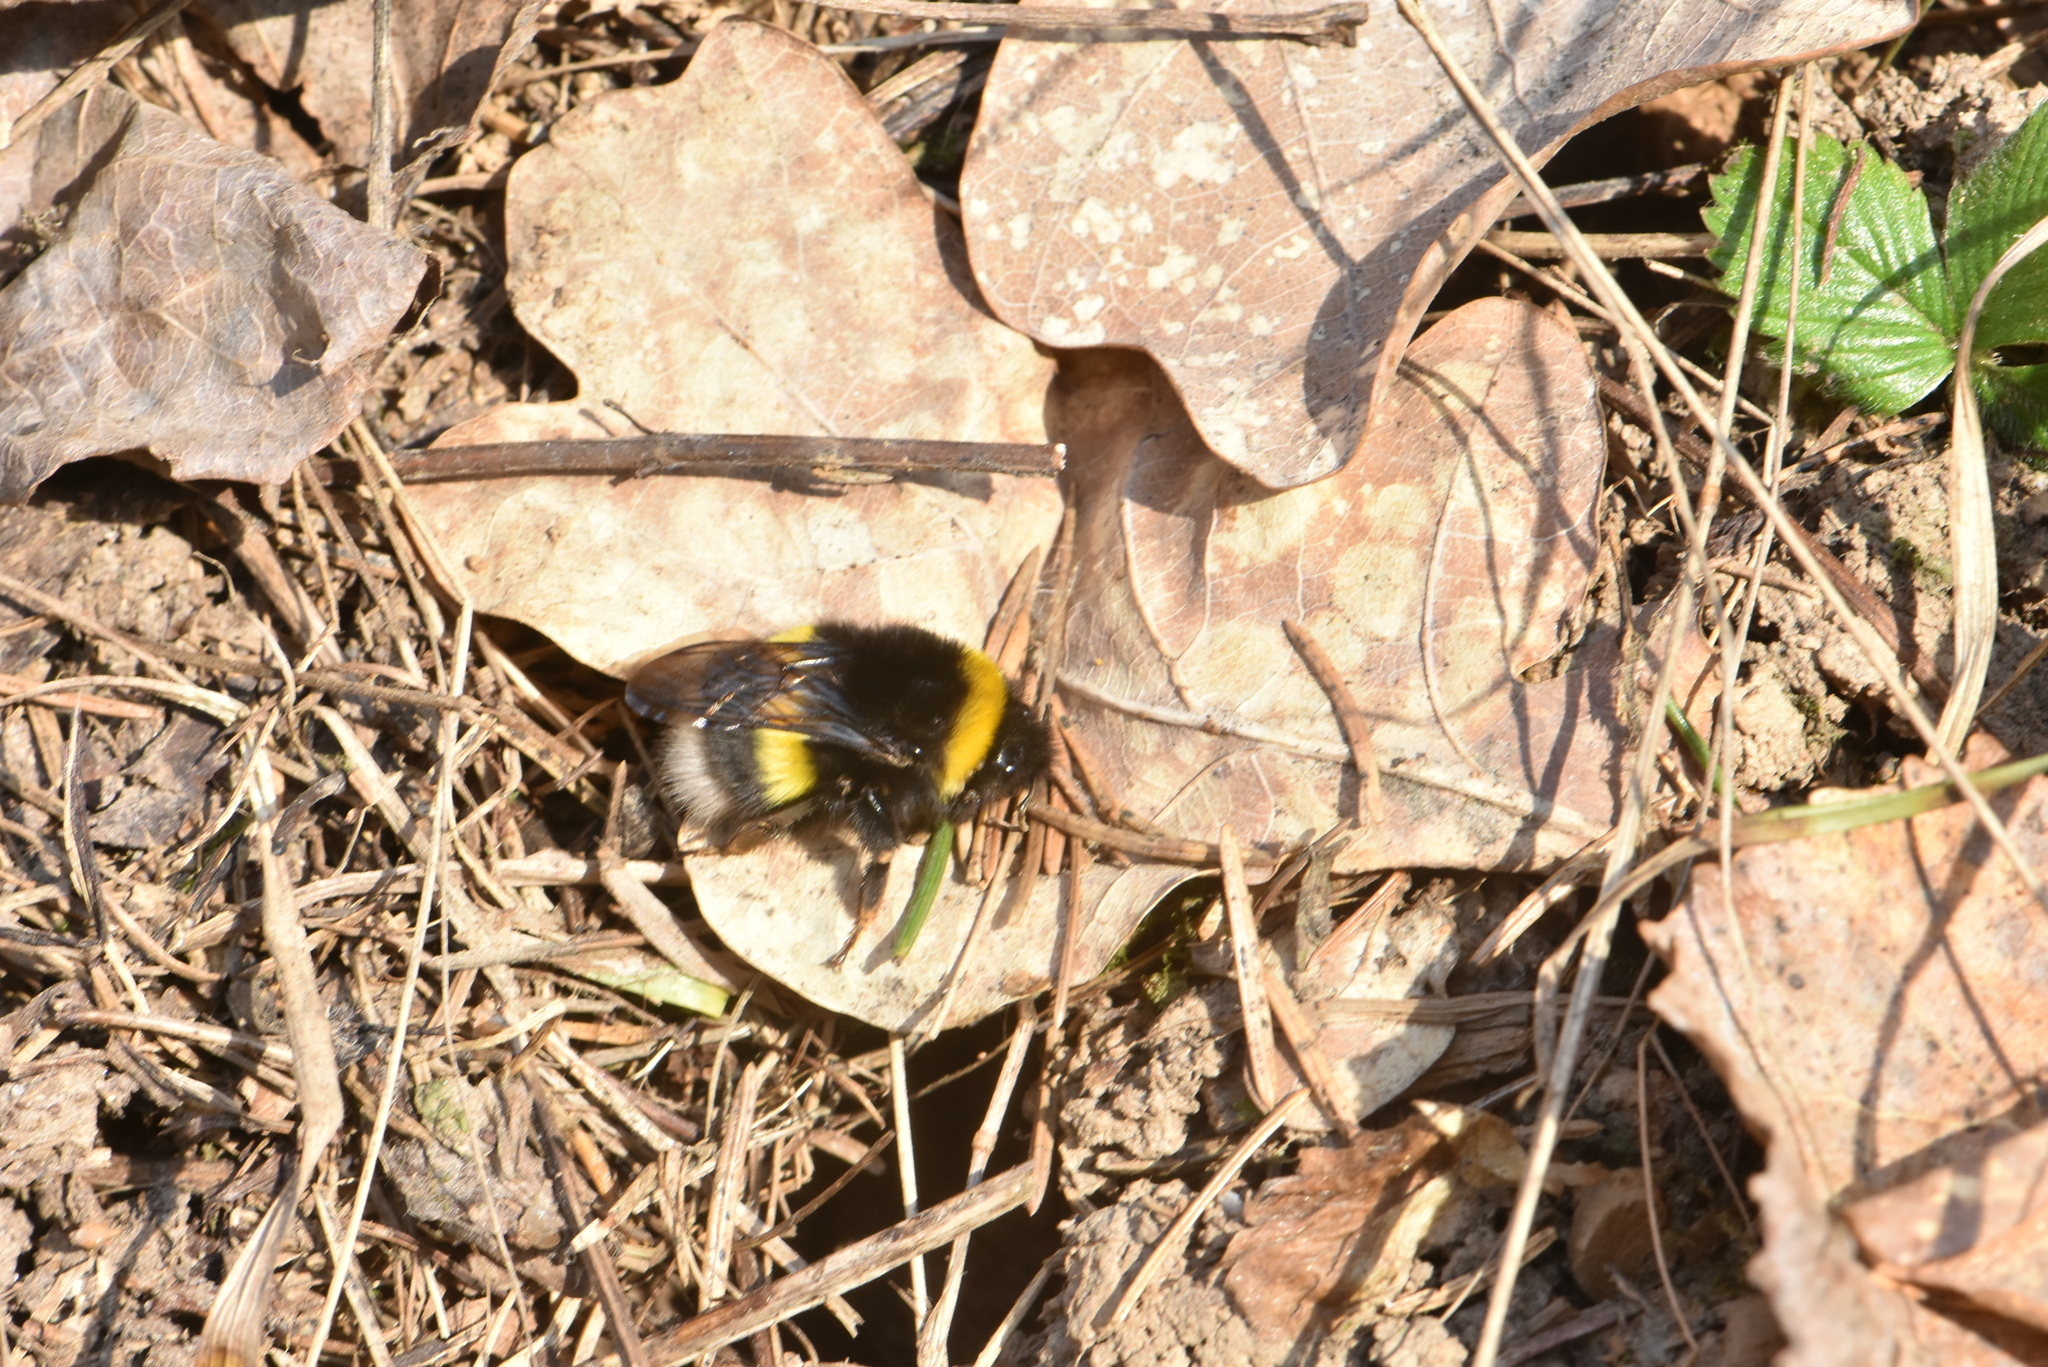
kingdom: Animalia
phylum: Arthropoda
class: Insecta
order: Hymenoptera
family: Apidae
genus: Bombus
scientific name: Bombus
